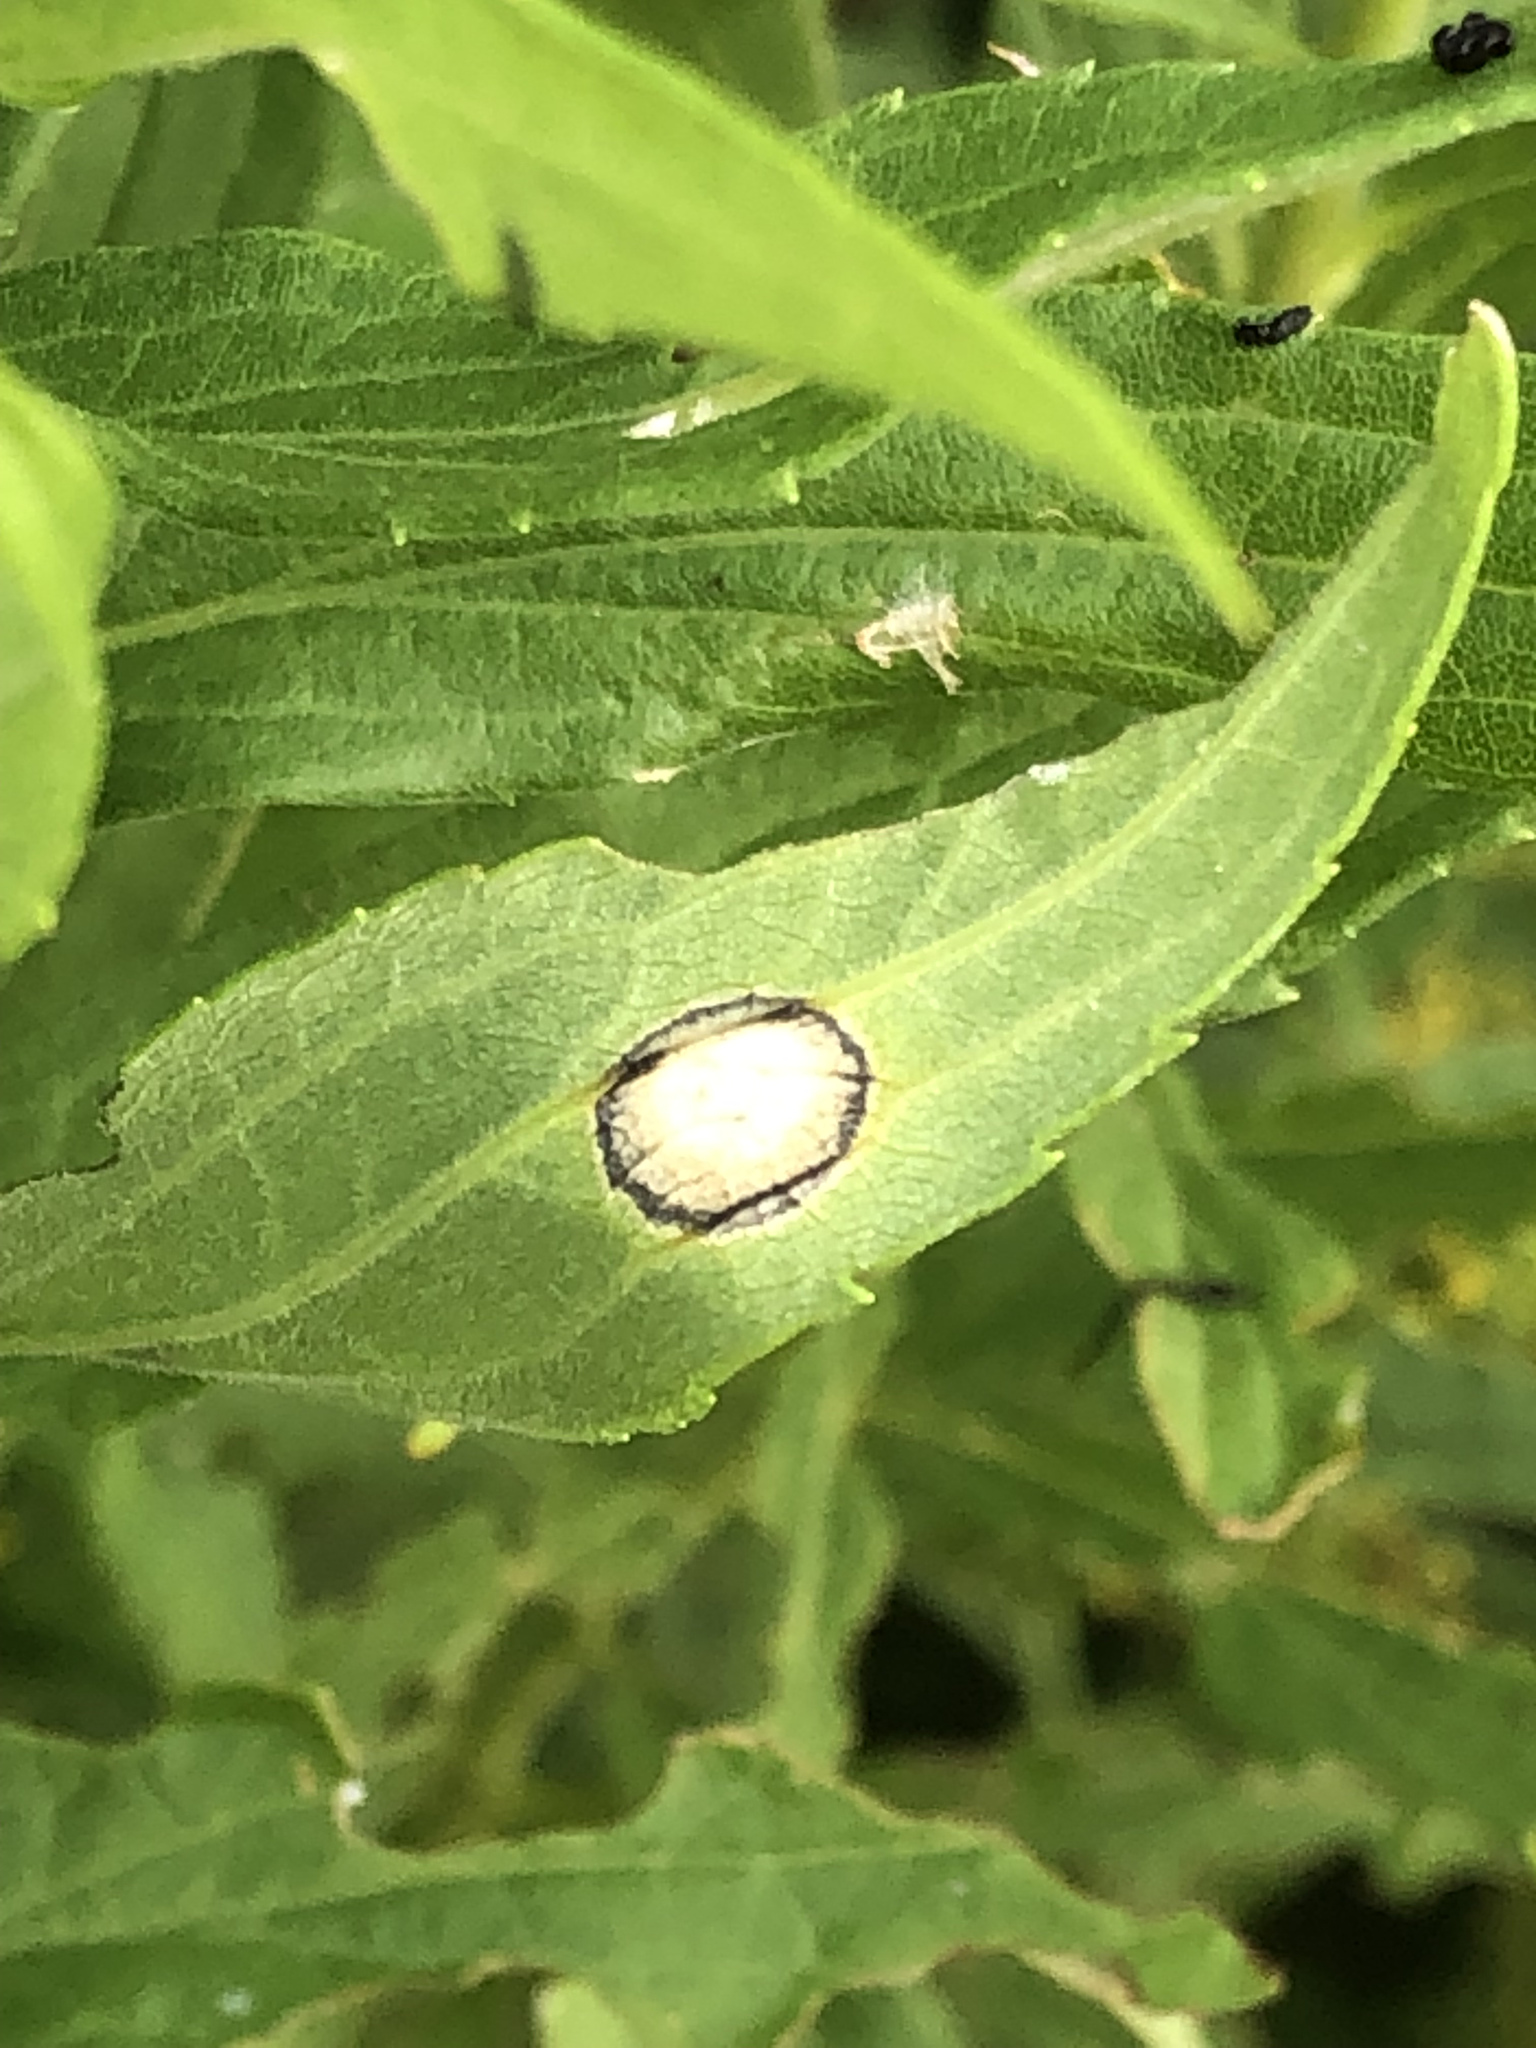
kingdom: Animalia
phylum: Arthropoda
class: Insecta
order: Diptera
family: Cecidomyiidae
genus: Asteromyia
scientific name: Asteromyia carbonifera
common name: Carbonifera goldenrod gall midge
